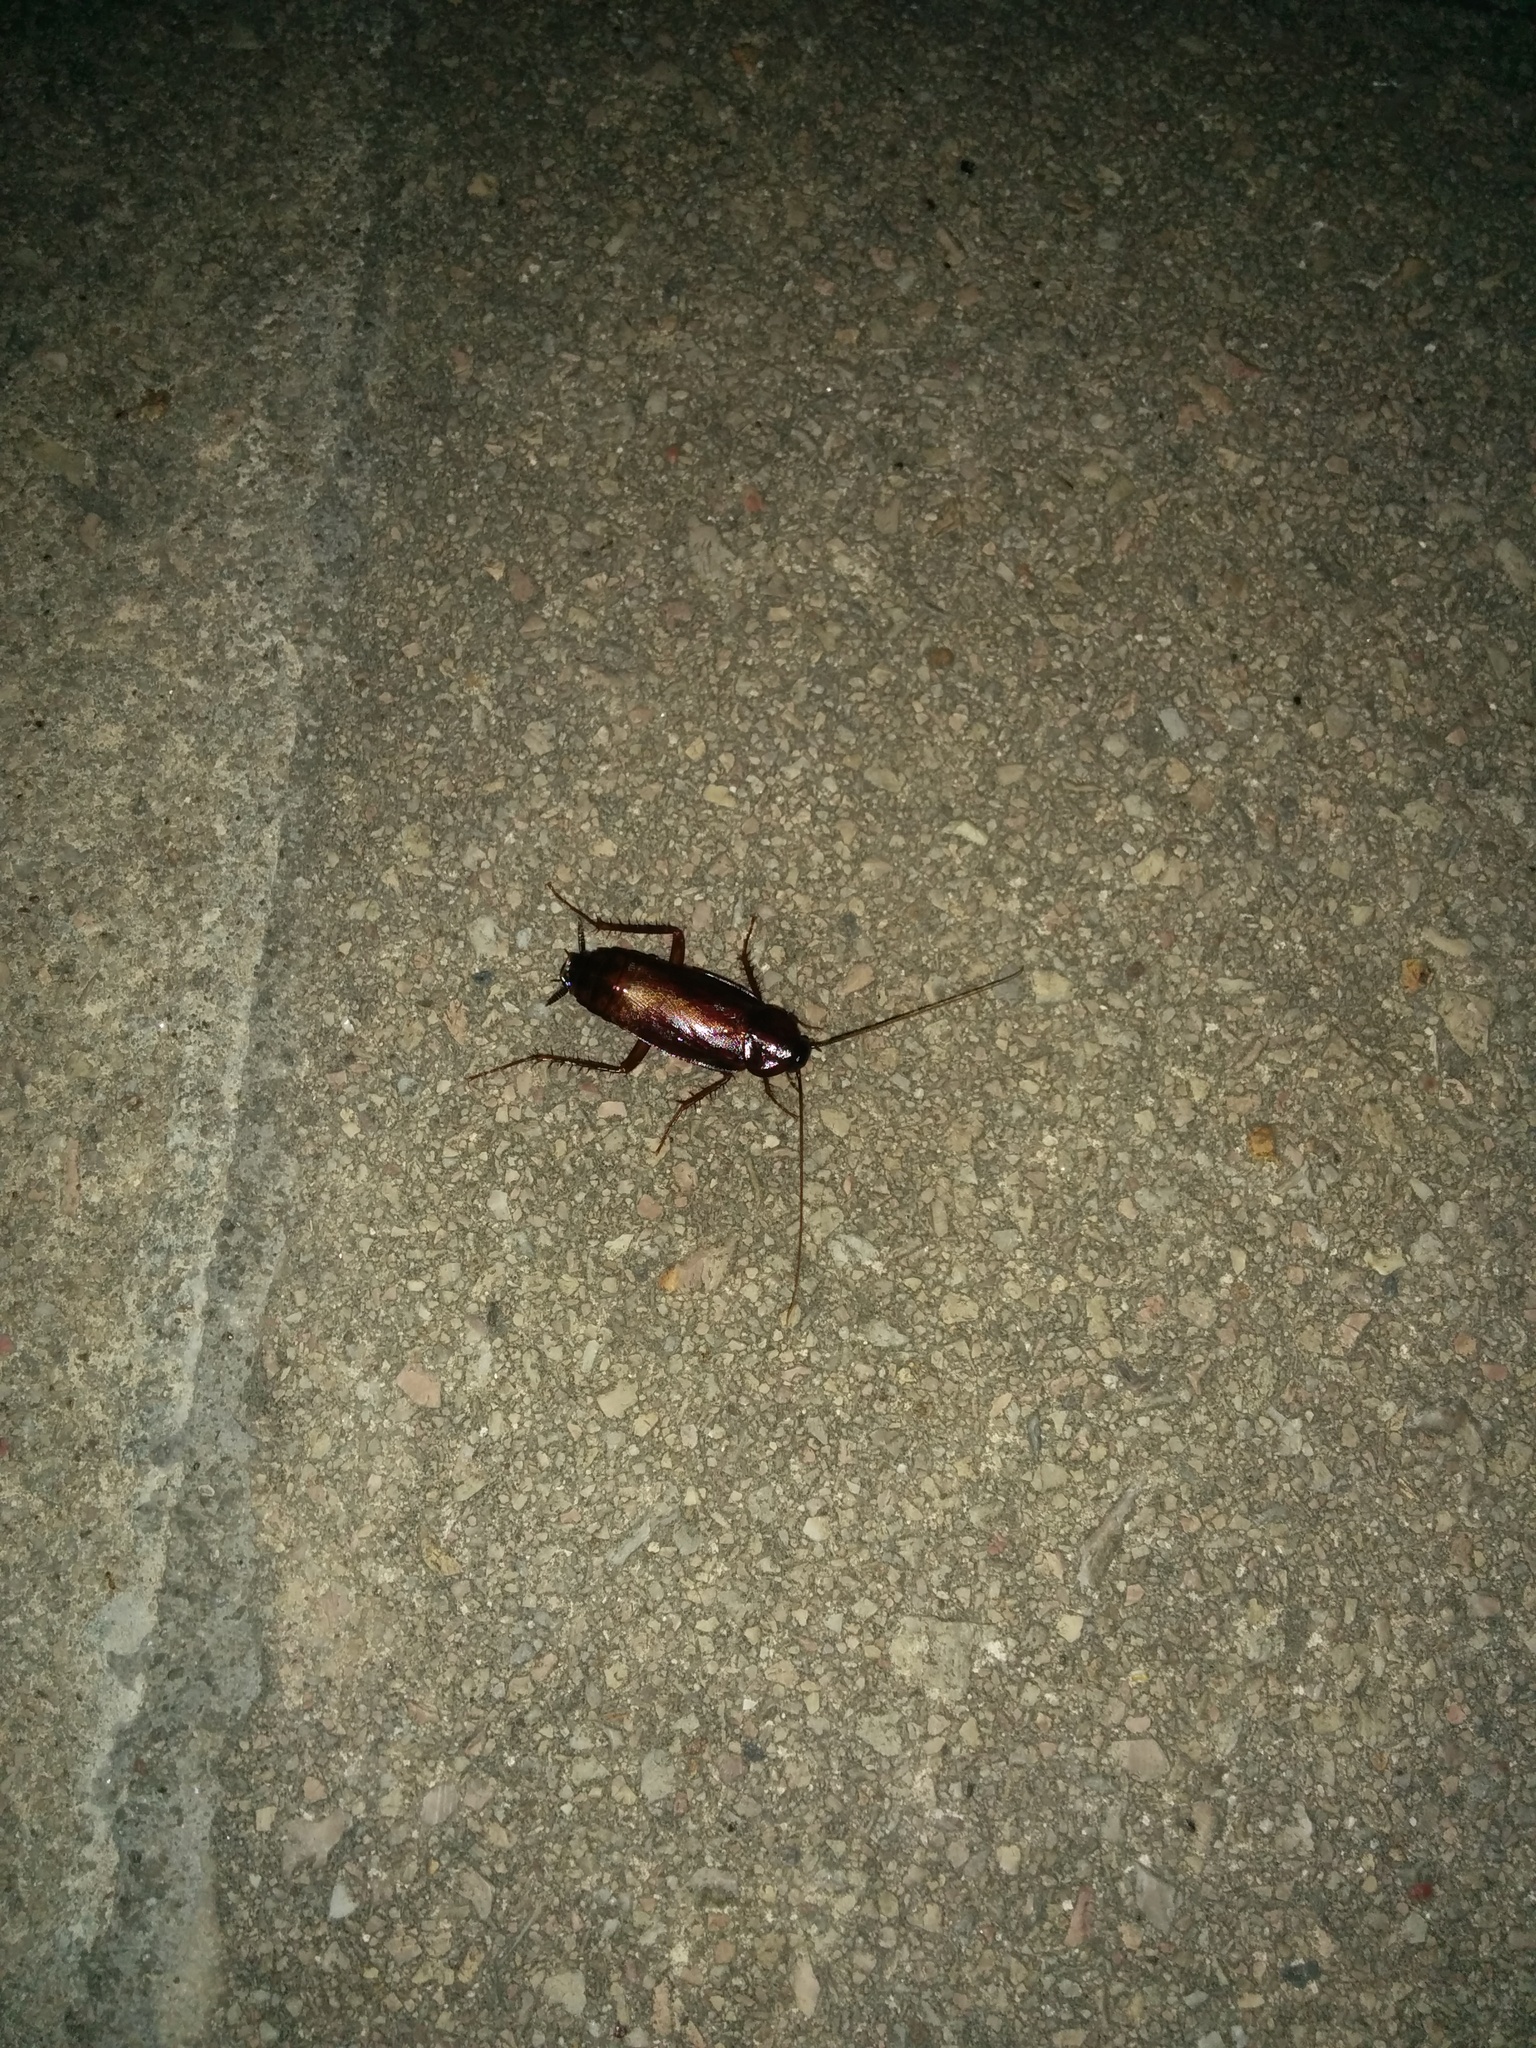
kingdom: Animalia
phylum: Arthropoda
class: Insecta
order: Blattodea
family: Blattidae
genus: Blatta
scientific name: Blatta orientalis
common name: Oriental cockroach
